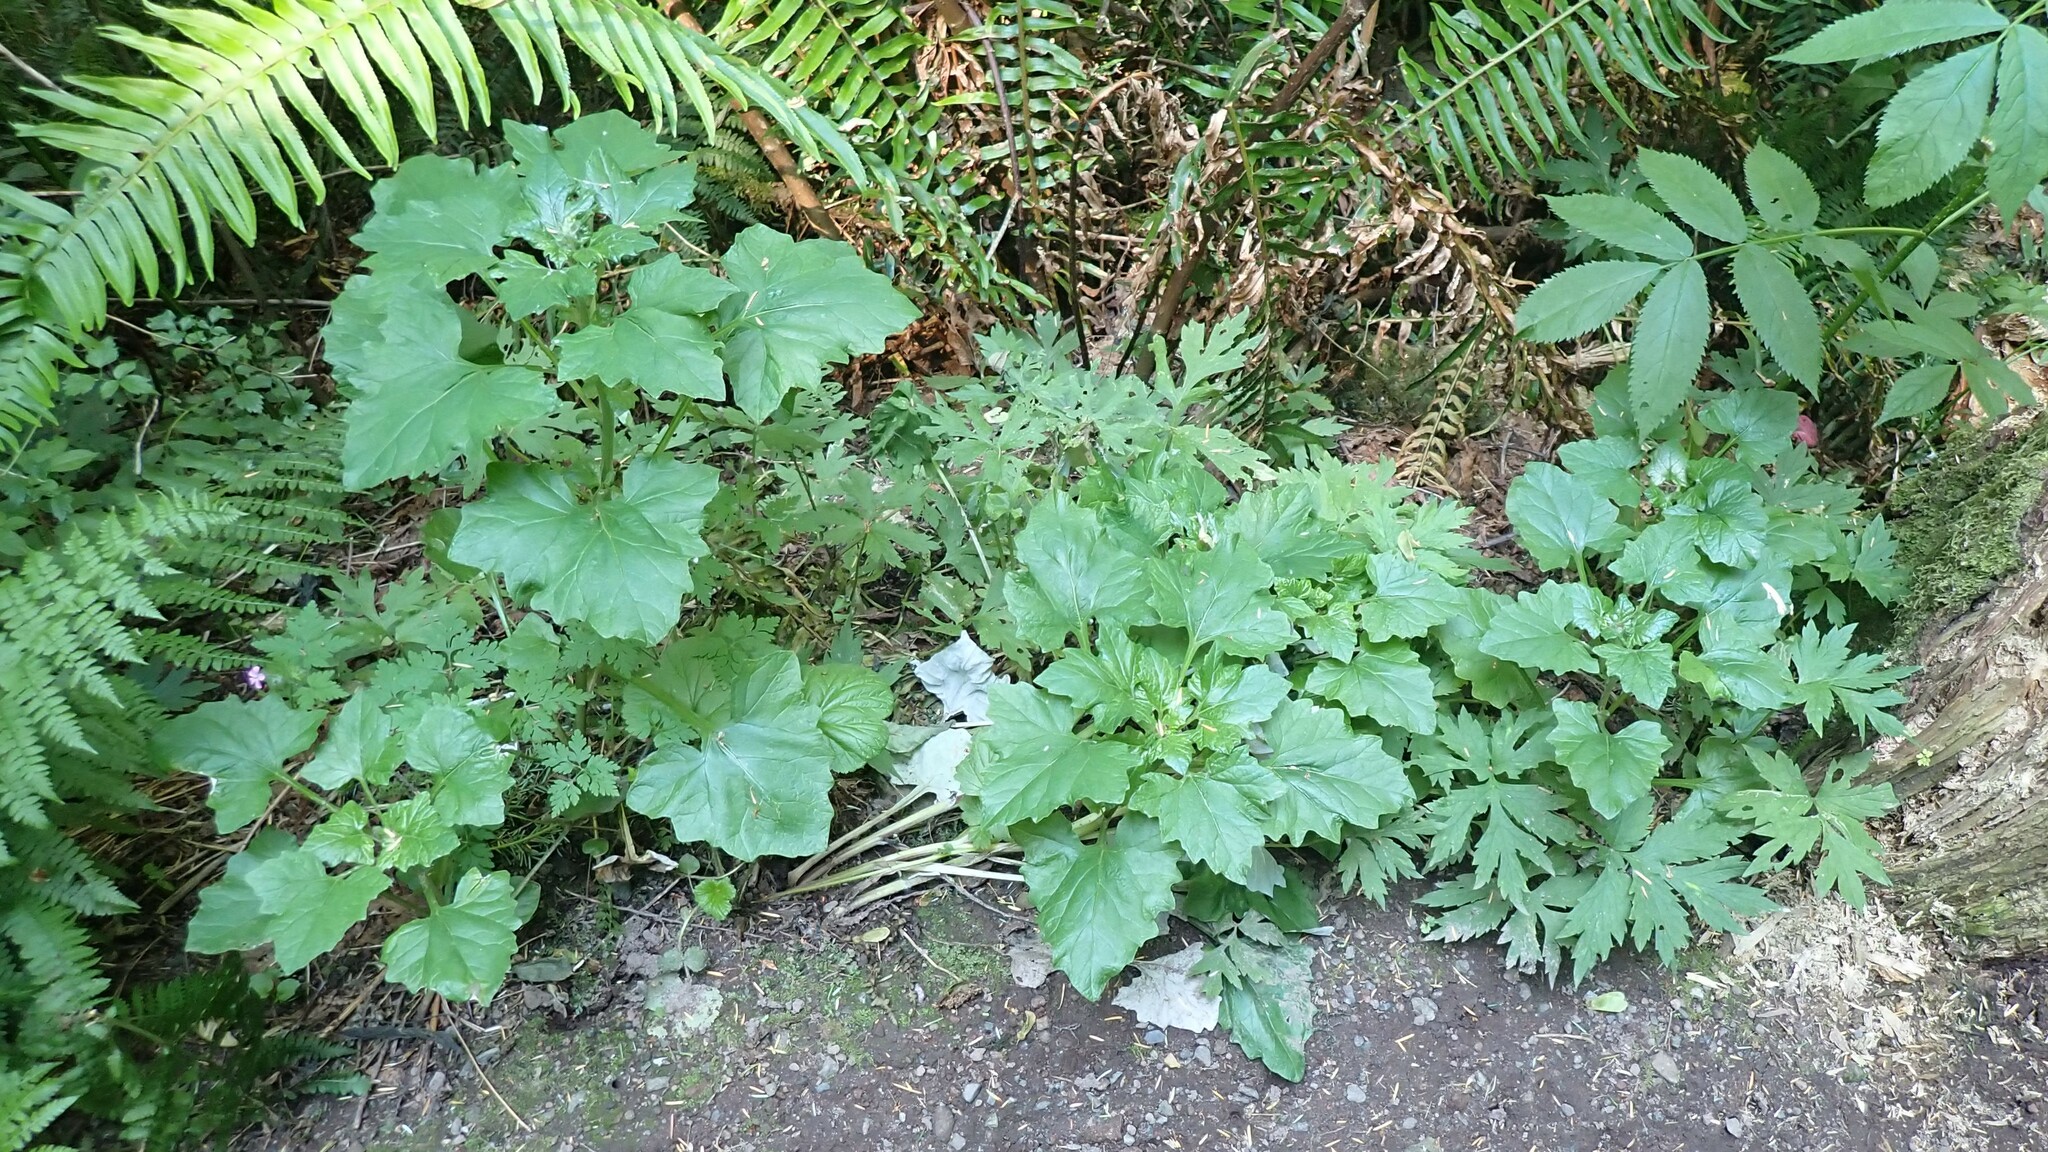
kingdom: Plantae
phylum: Tracheophyta
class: Magnoliopsida
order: Asterales
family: Asteraceae
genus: Adenocaulon
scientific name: Adenocaulon bicolor
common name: Trailplant
